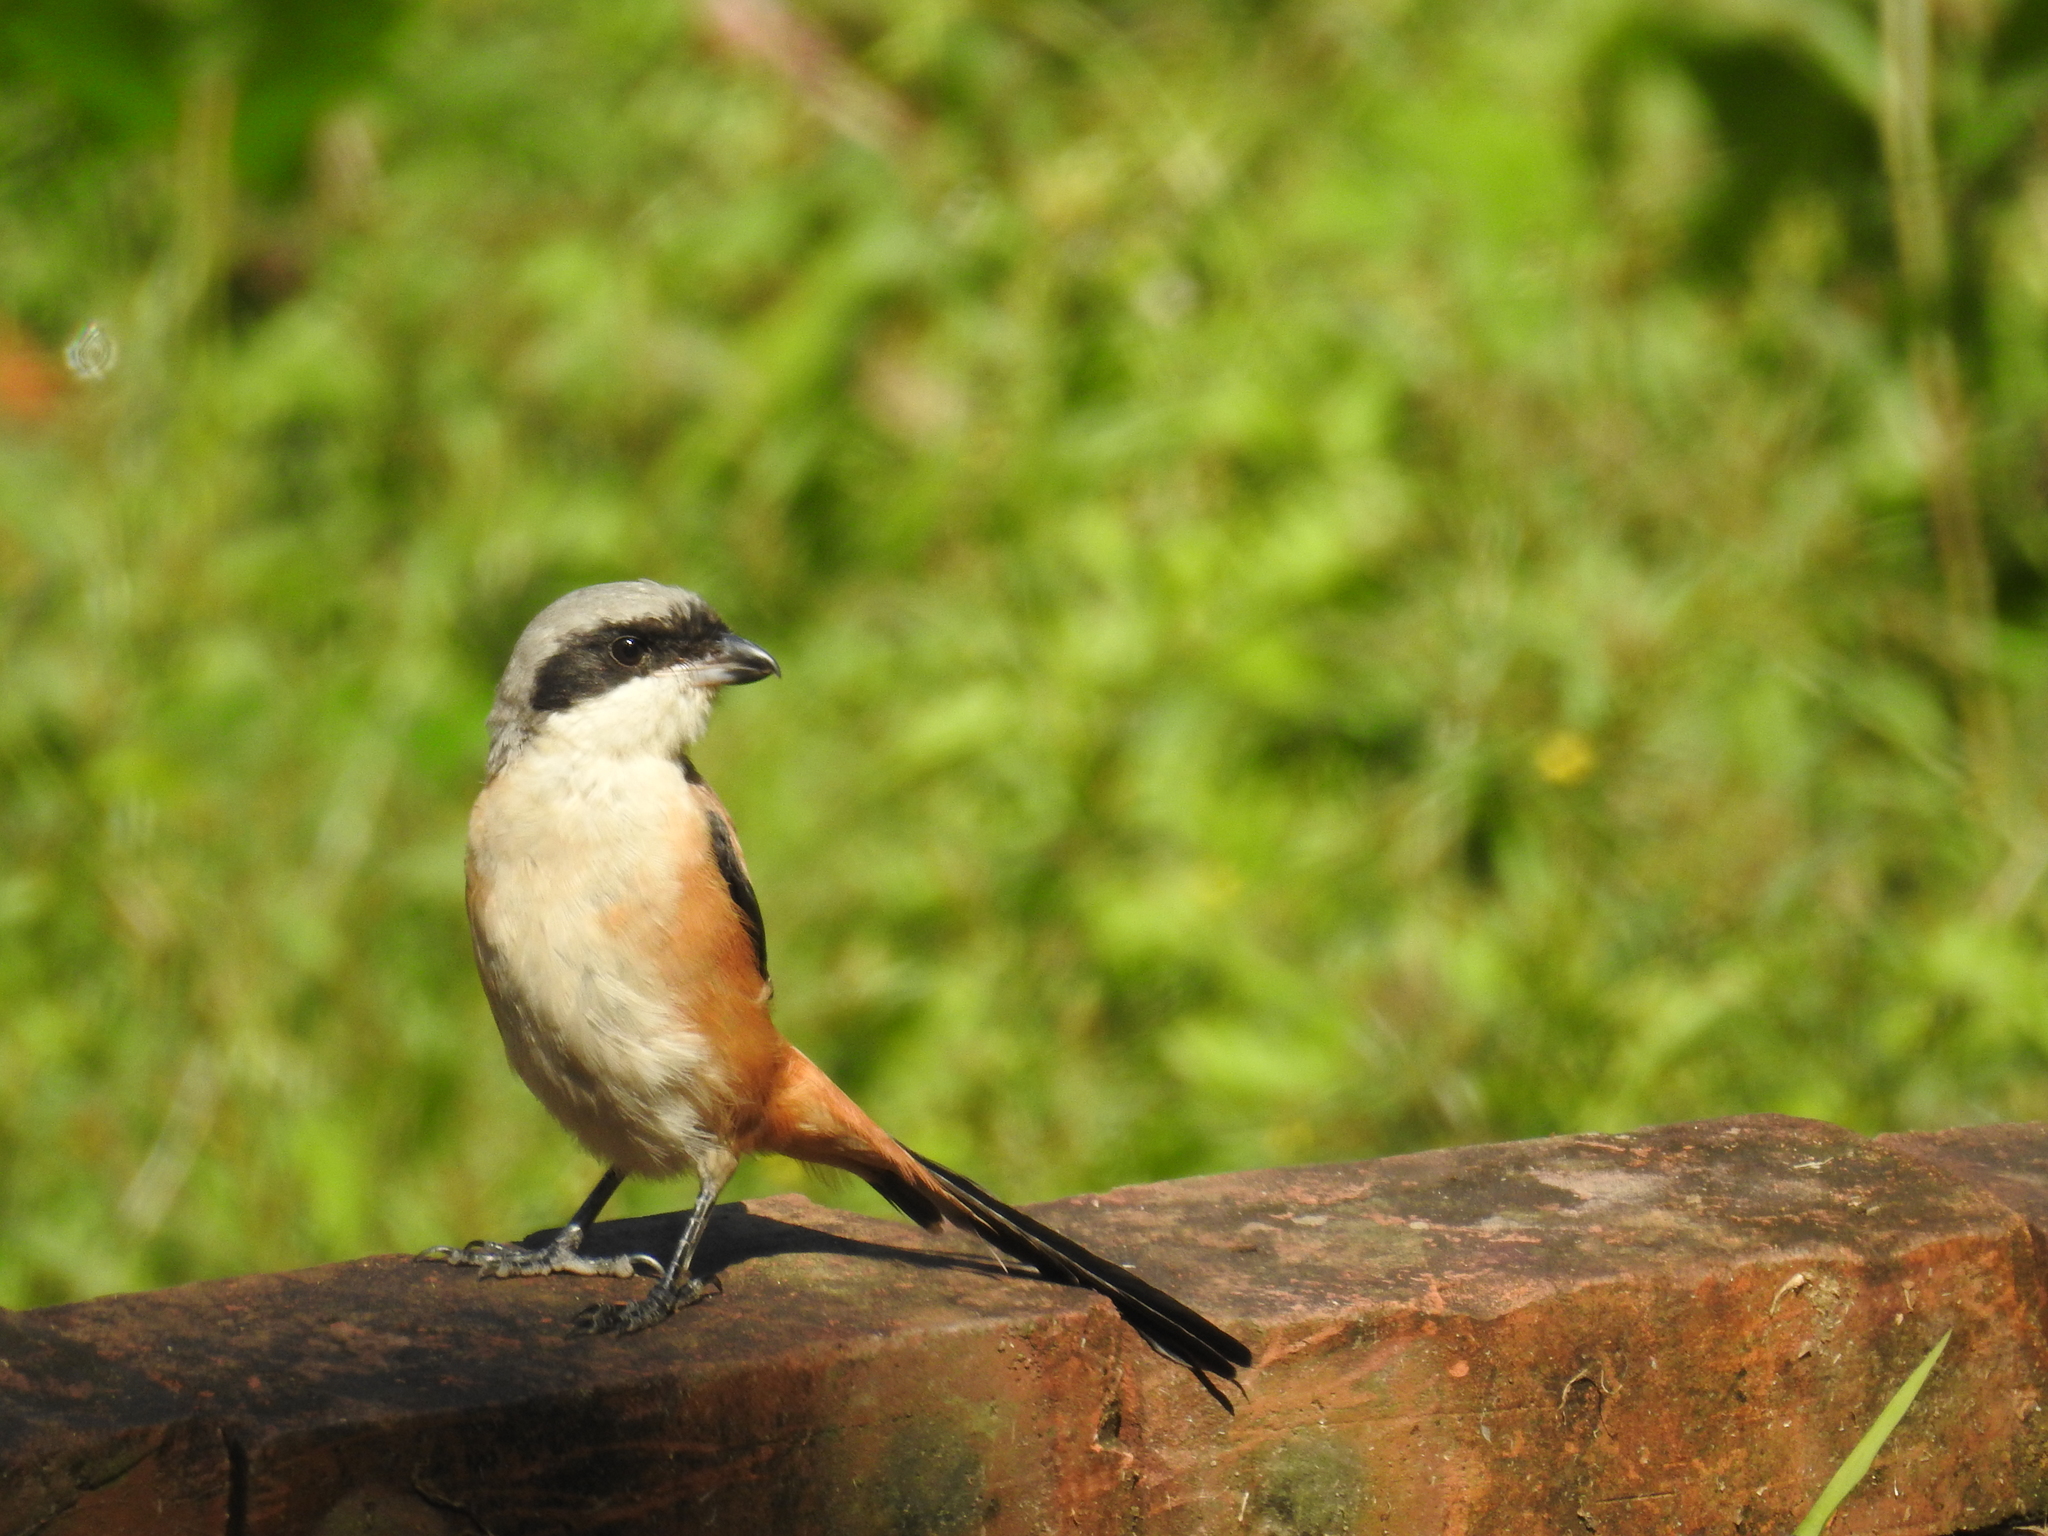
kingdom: Animalia
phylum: Chordata
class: Aves
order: Passeriformes
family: Laniidae
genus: Lanius
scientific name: Lanius schach
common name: Long-tailed shrike
